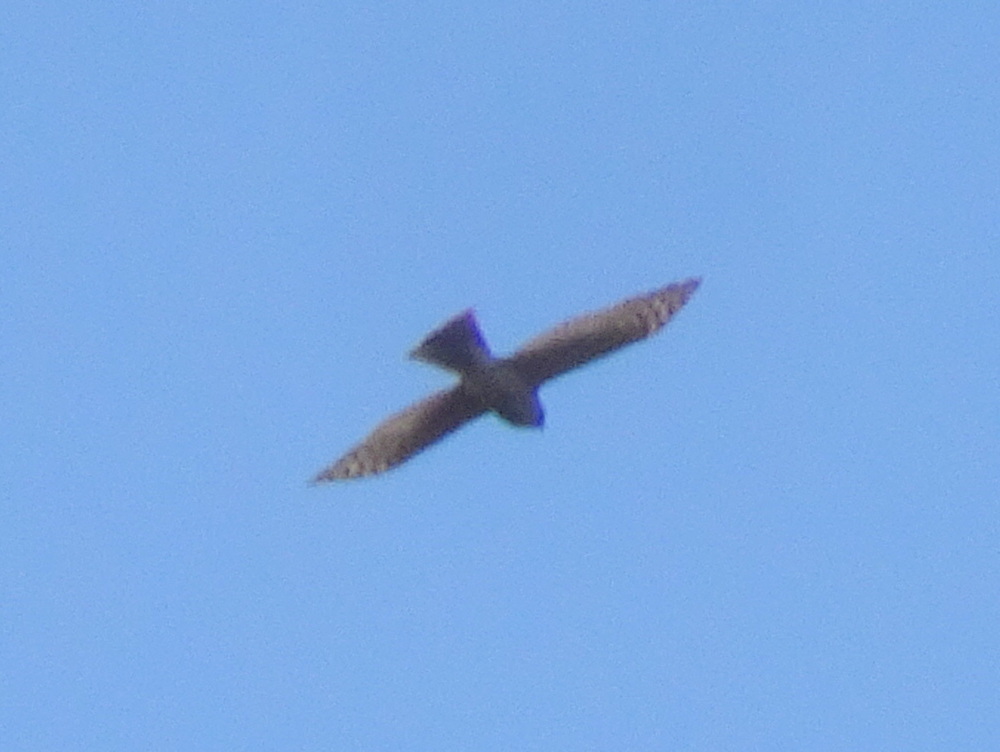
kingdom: Animalia
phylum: Chordata
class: Aves
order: Accipitriformes
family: Accipitridae
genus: Accipiter
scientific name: Accipiter striatus
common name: Sharp-shinned hawk
